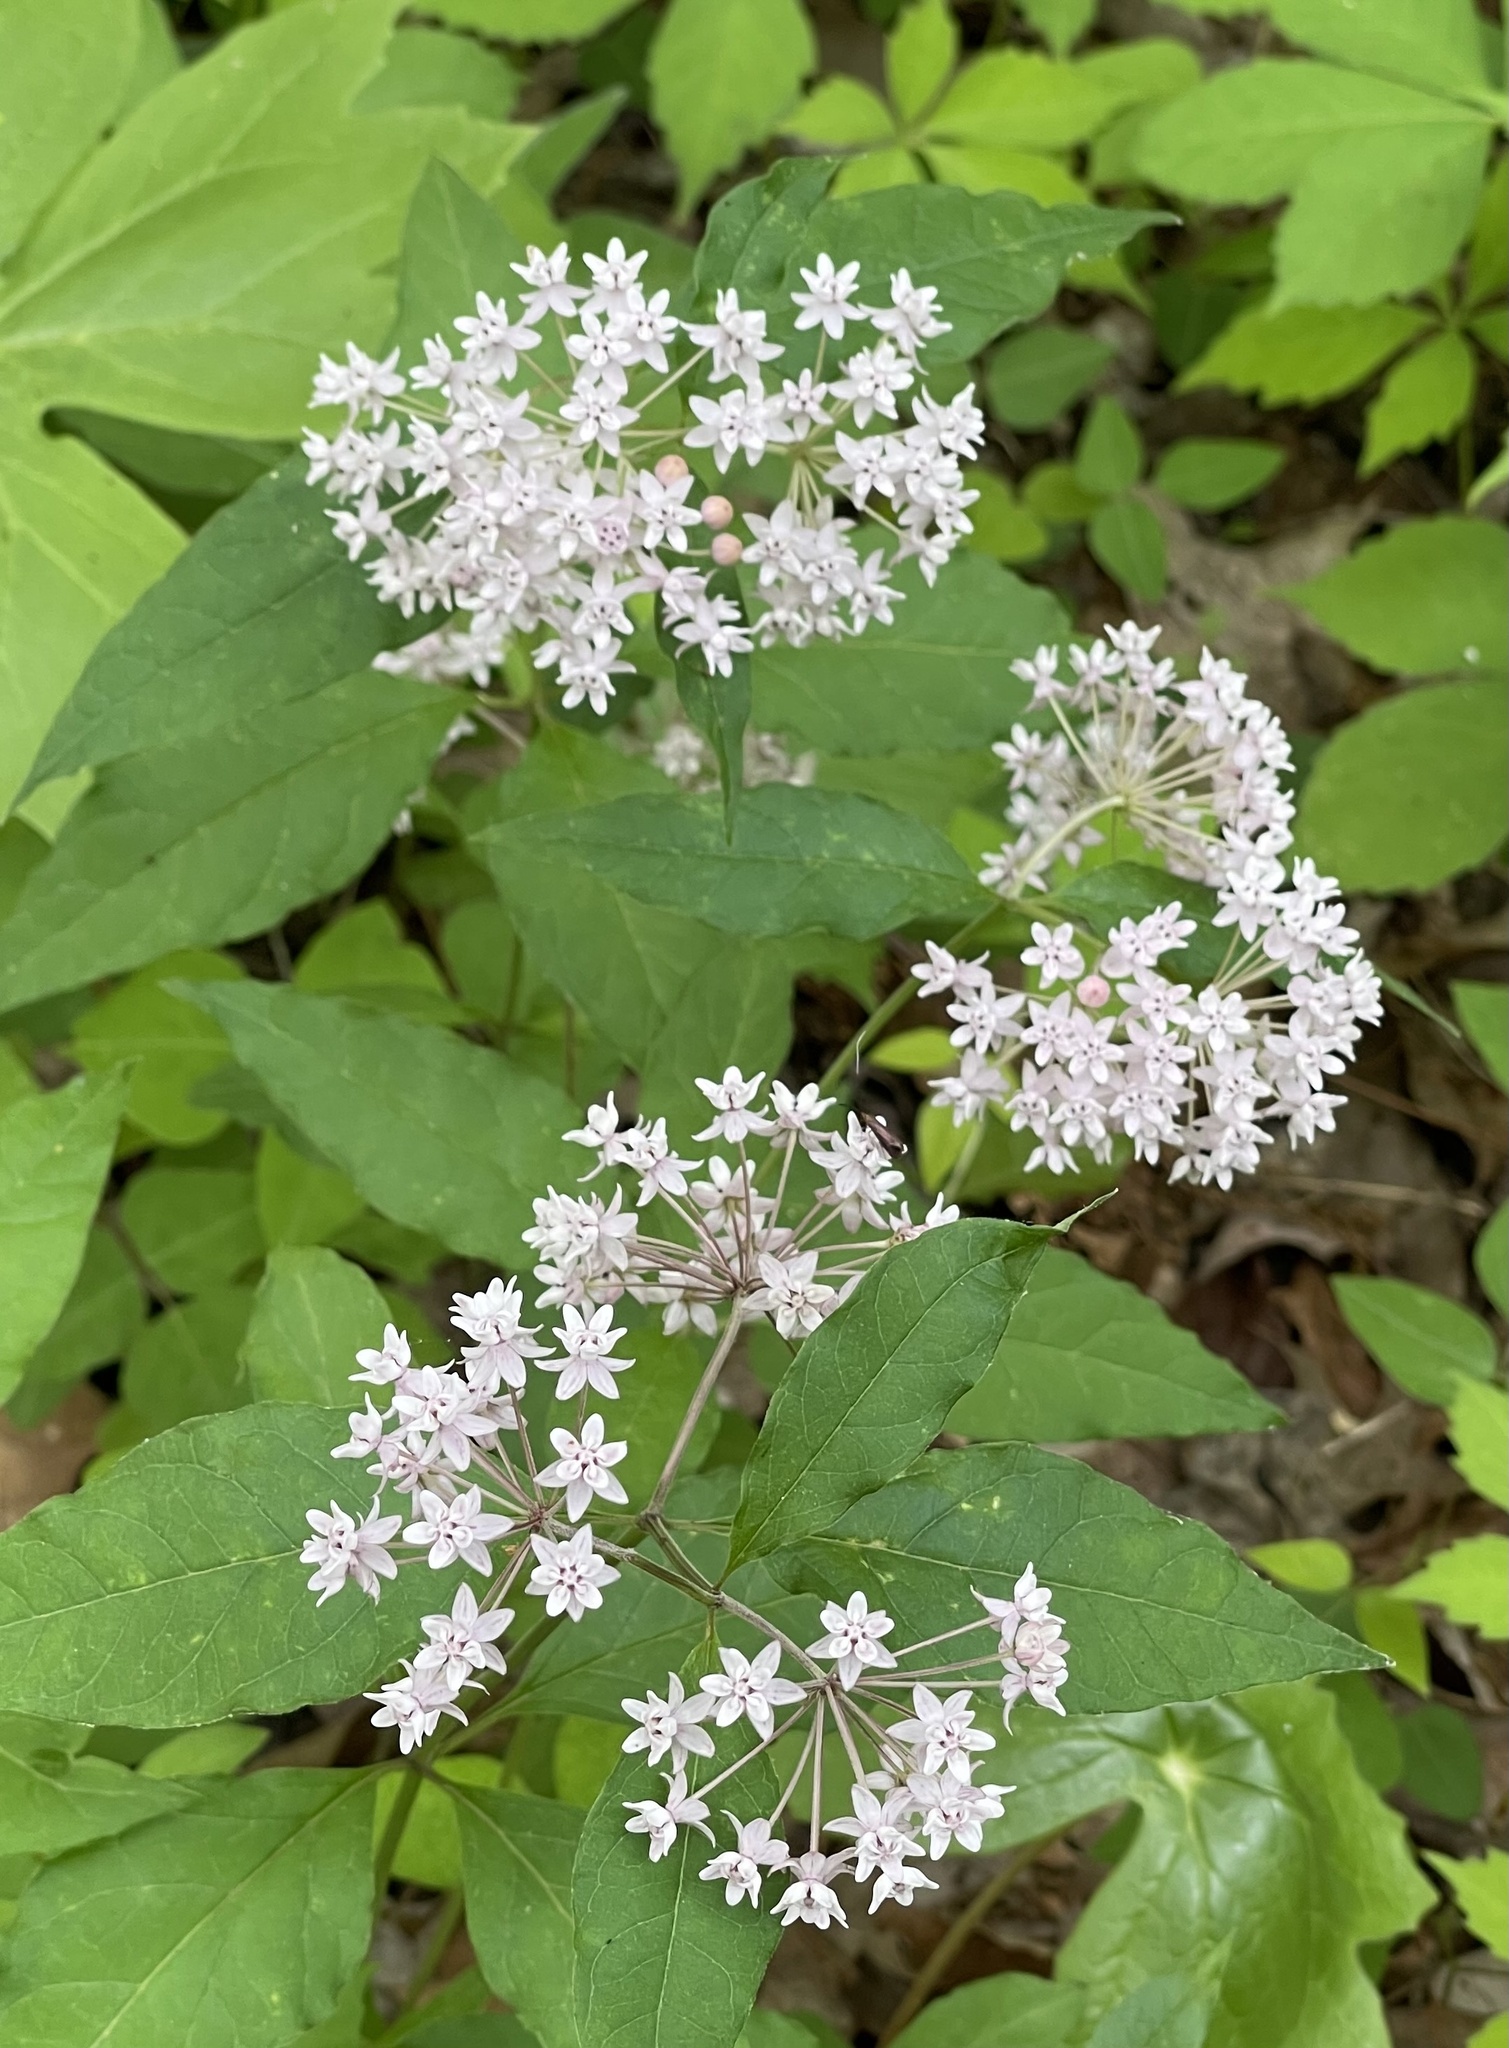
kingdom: Plantae
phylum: Tracheophyta
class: Magnoliopsida
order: Gentianales
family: Apocynaceae
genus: Asclepias
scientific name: Asclepias quadrifolia
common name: Whorled milkweed
